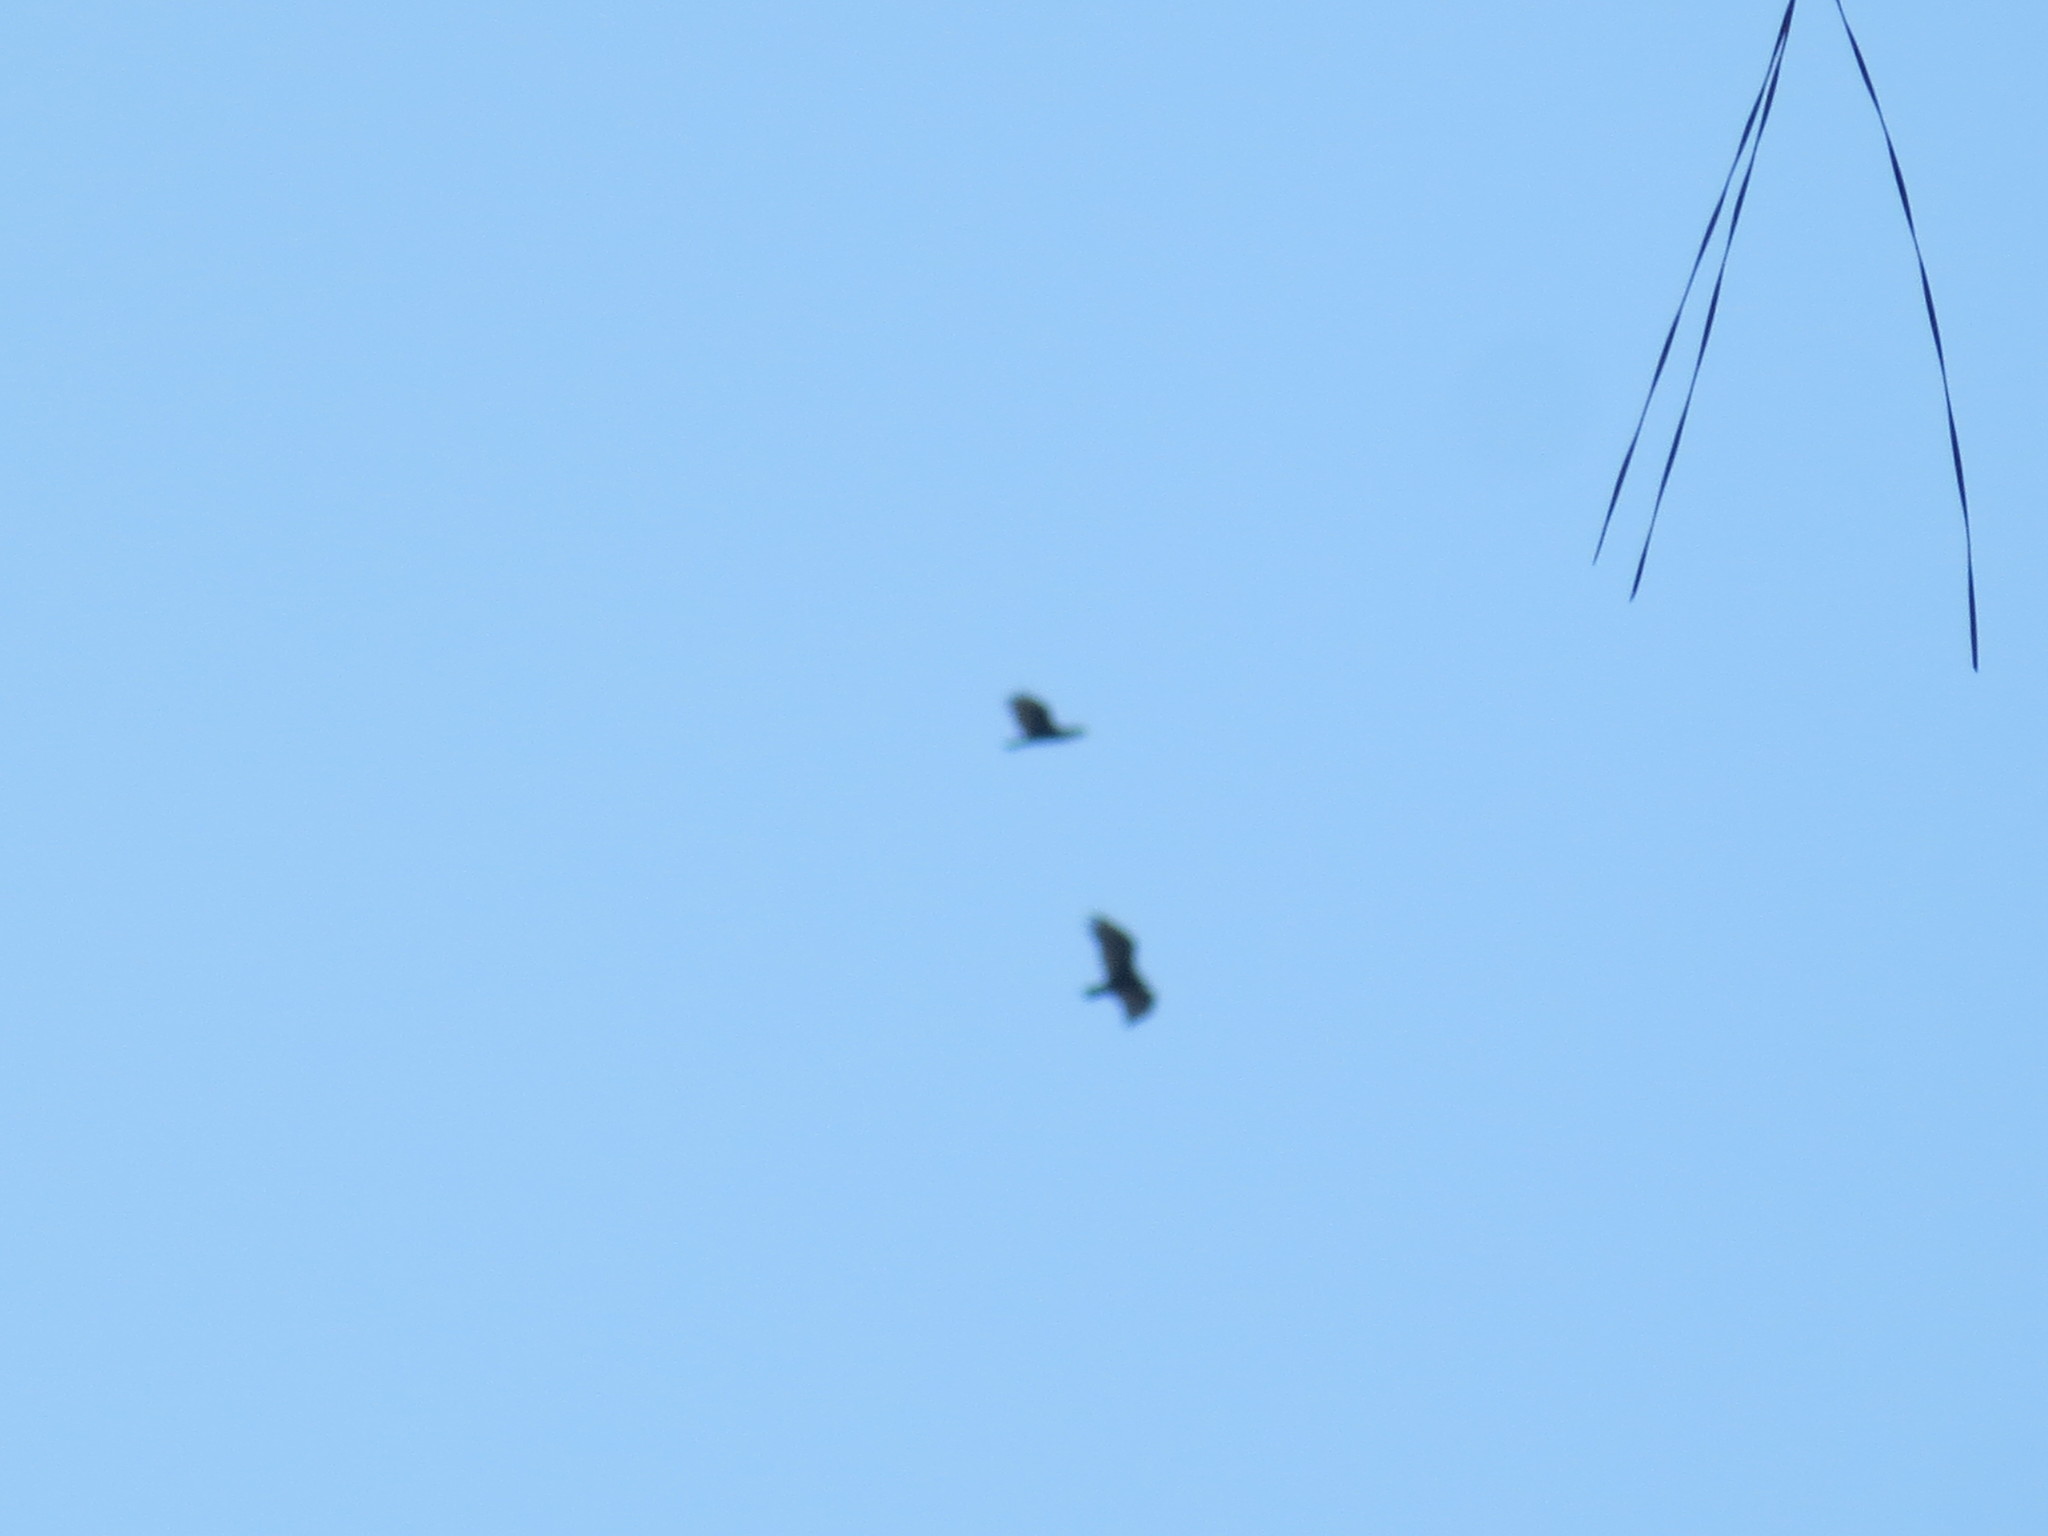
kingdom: Animalia
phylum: Chordata
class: Aves
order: Accipitriformes
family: Cathartidae
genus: Cathartes
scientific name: Cathartes aura
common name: Turkey vulture
